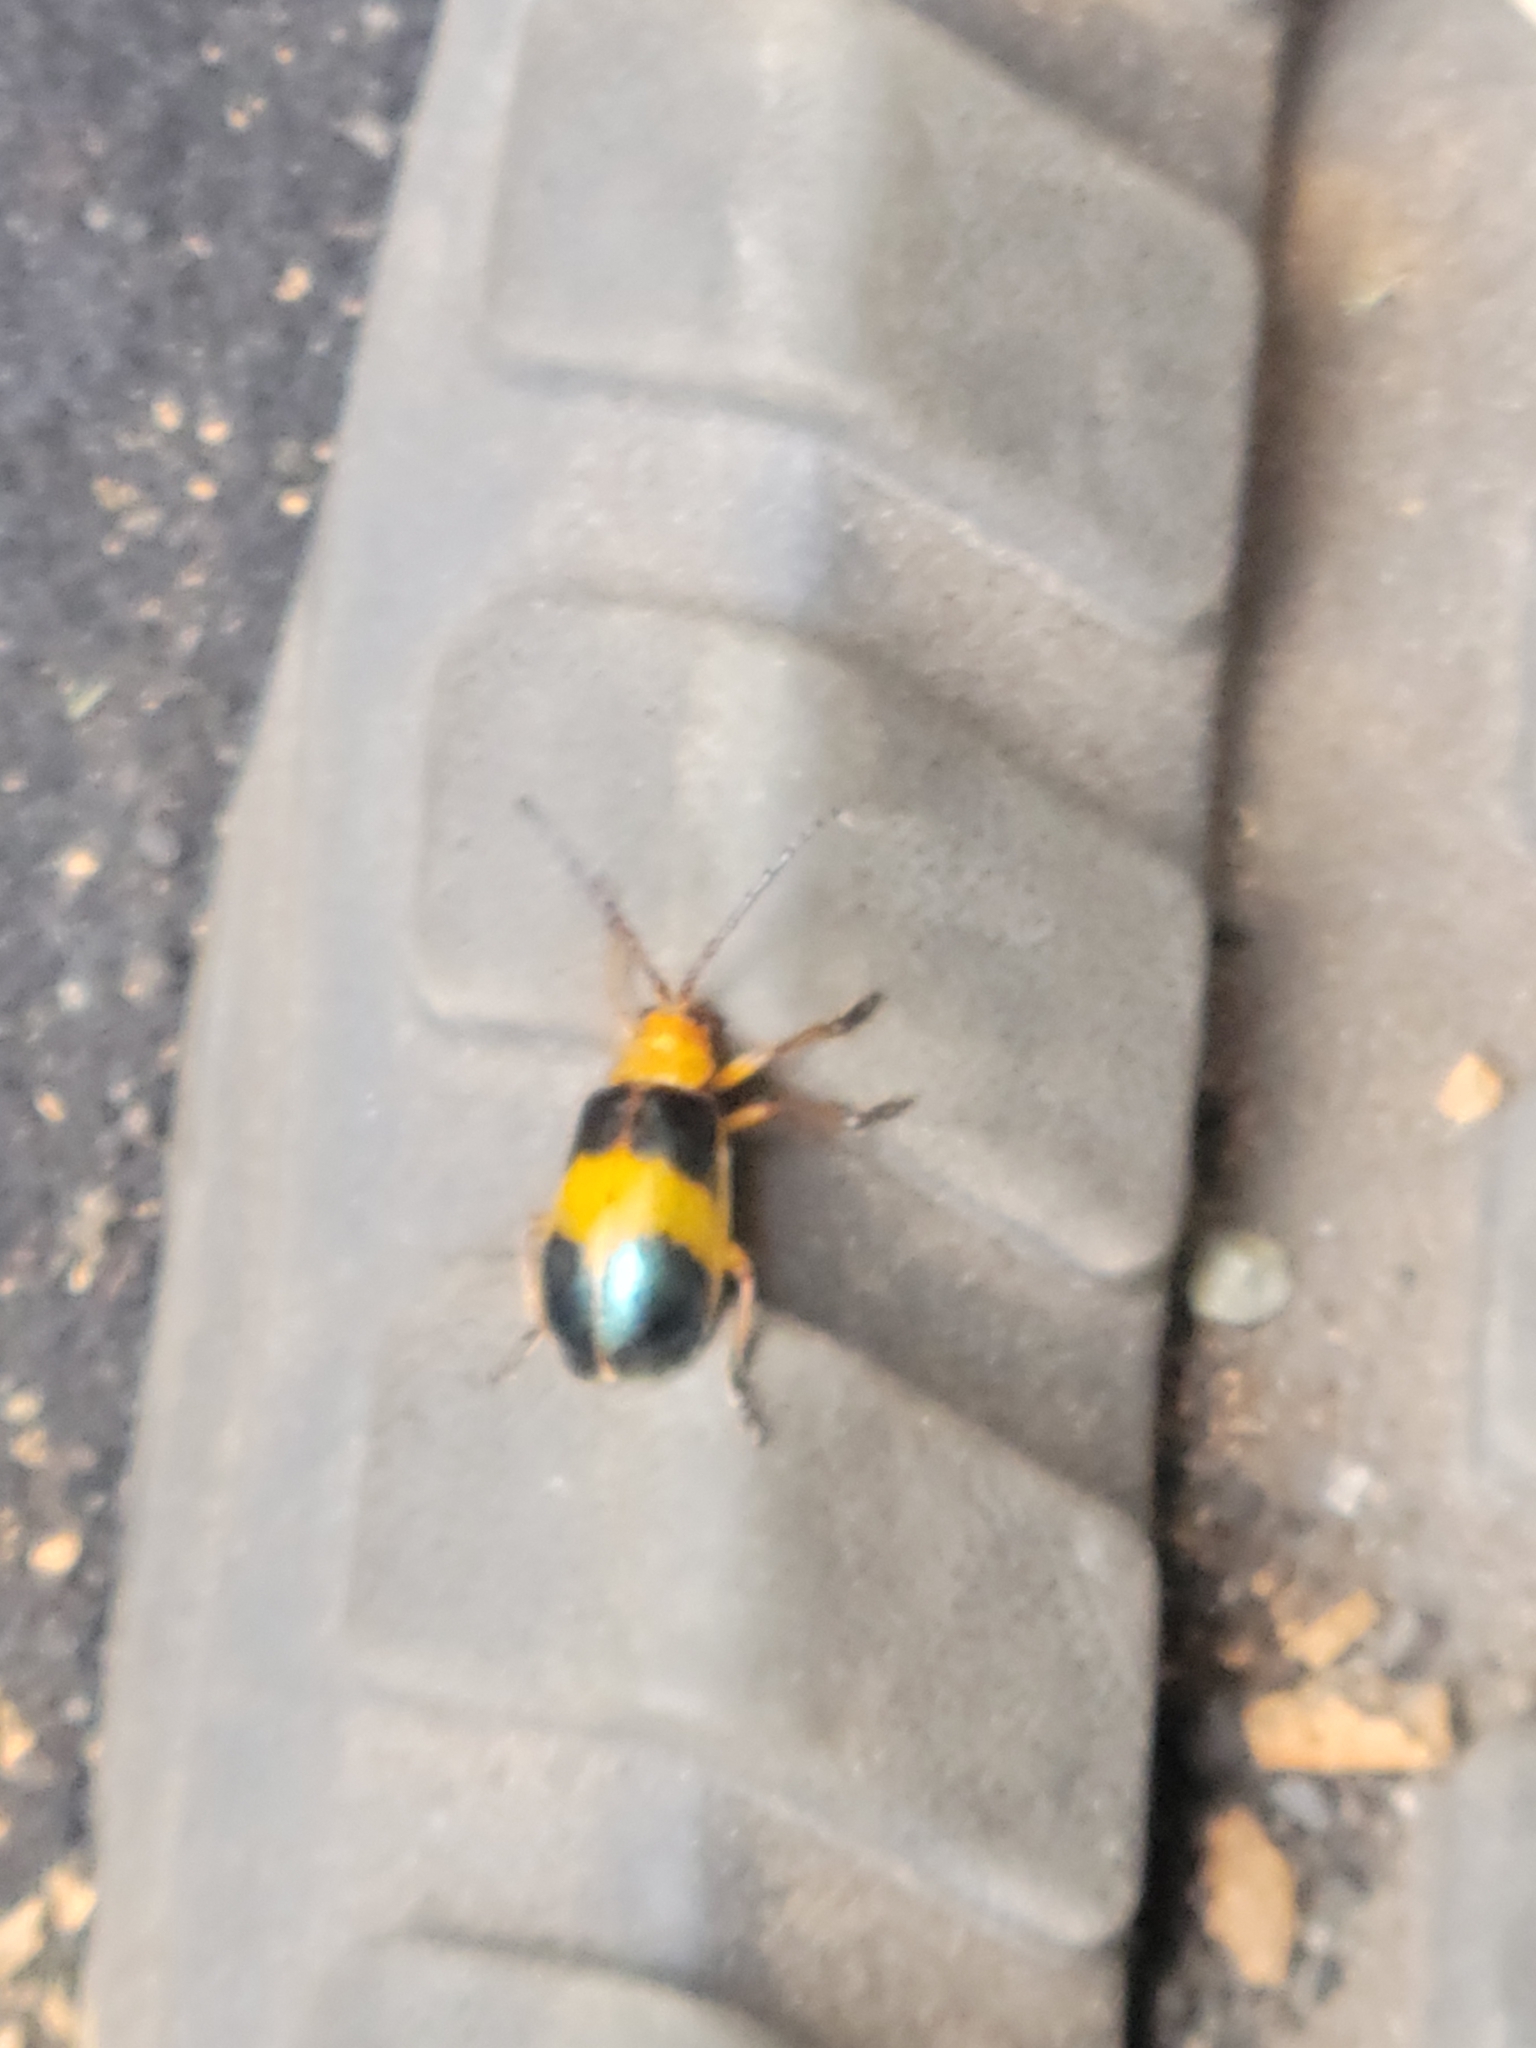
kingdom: Animalia
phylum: Arthropoda
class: Insecta
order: Coleoptera
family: Chrysomelidae
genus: Monocesta
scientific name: Monocesta coryli
